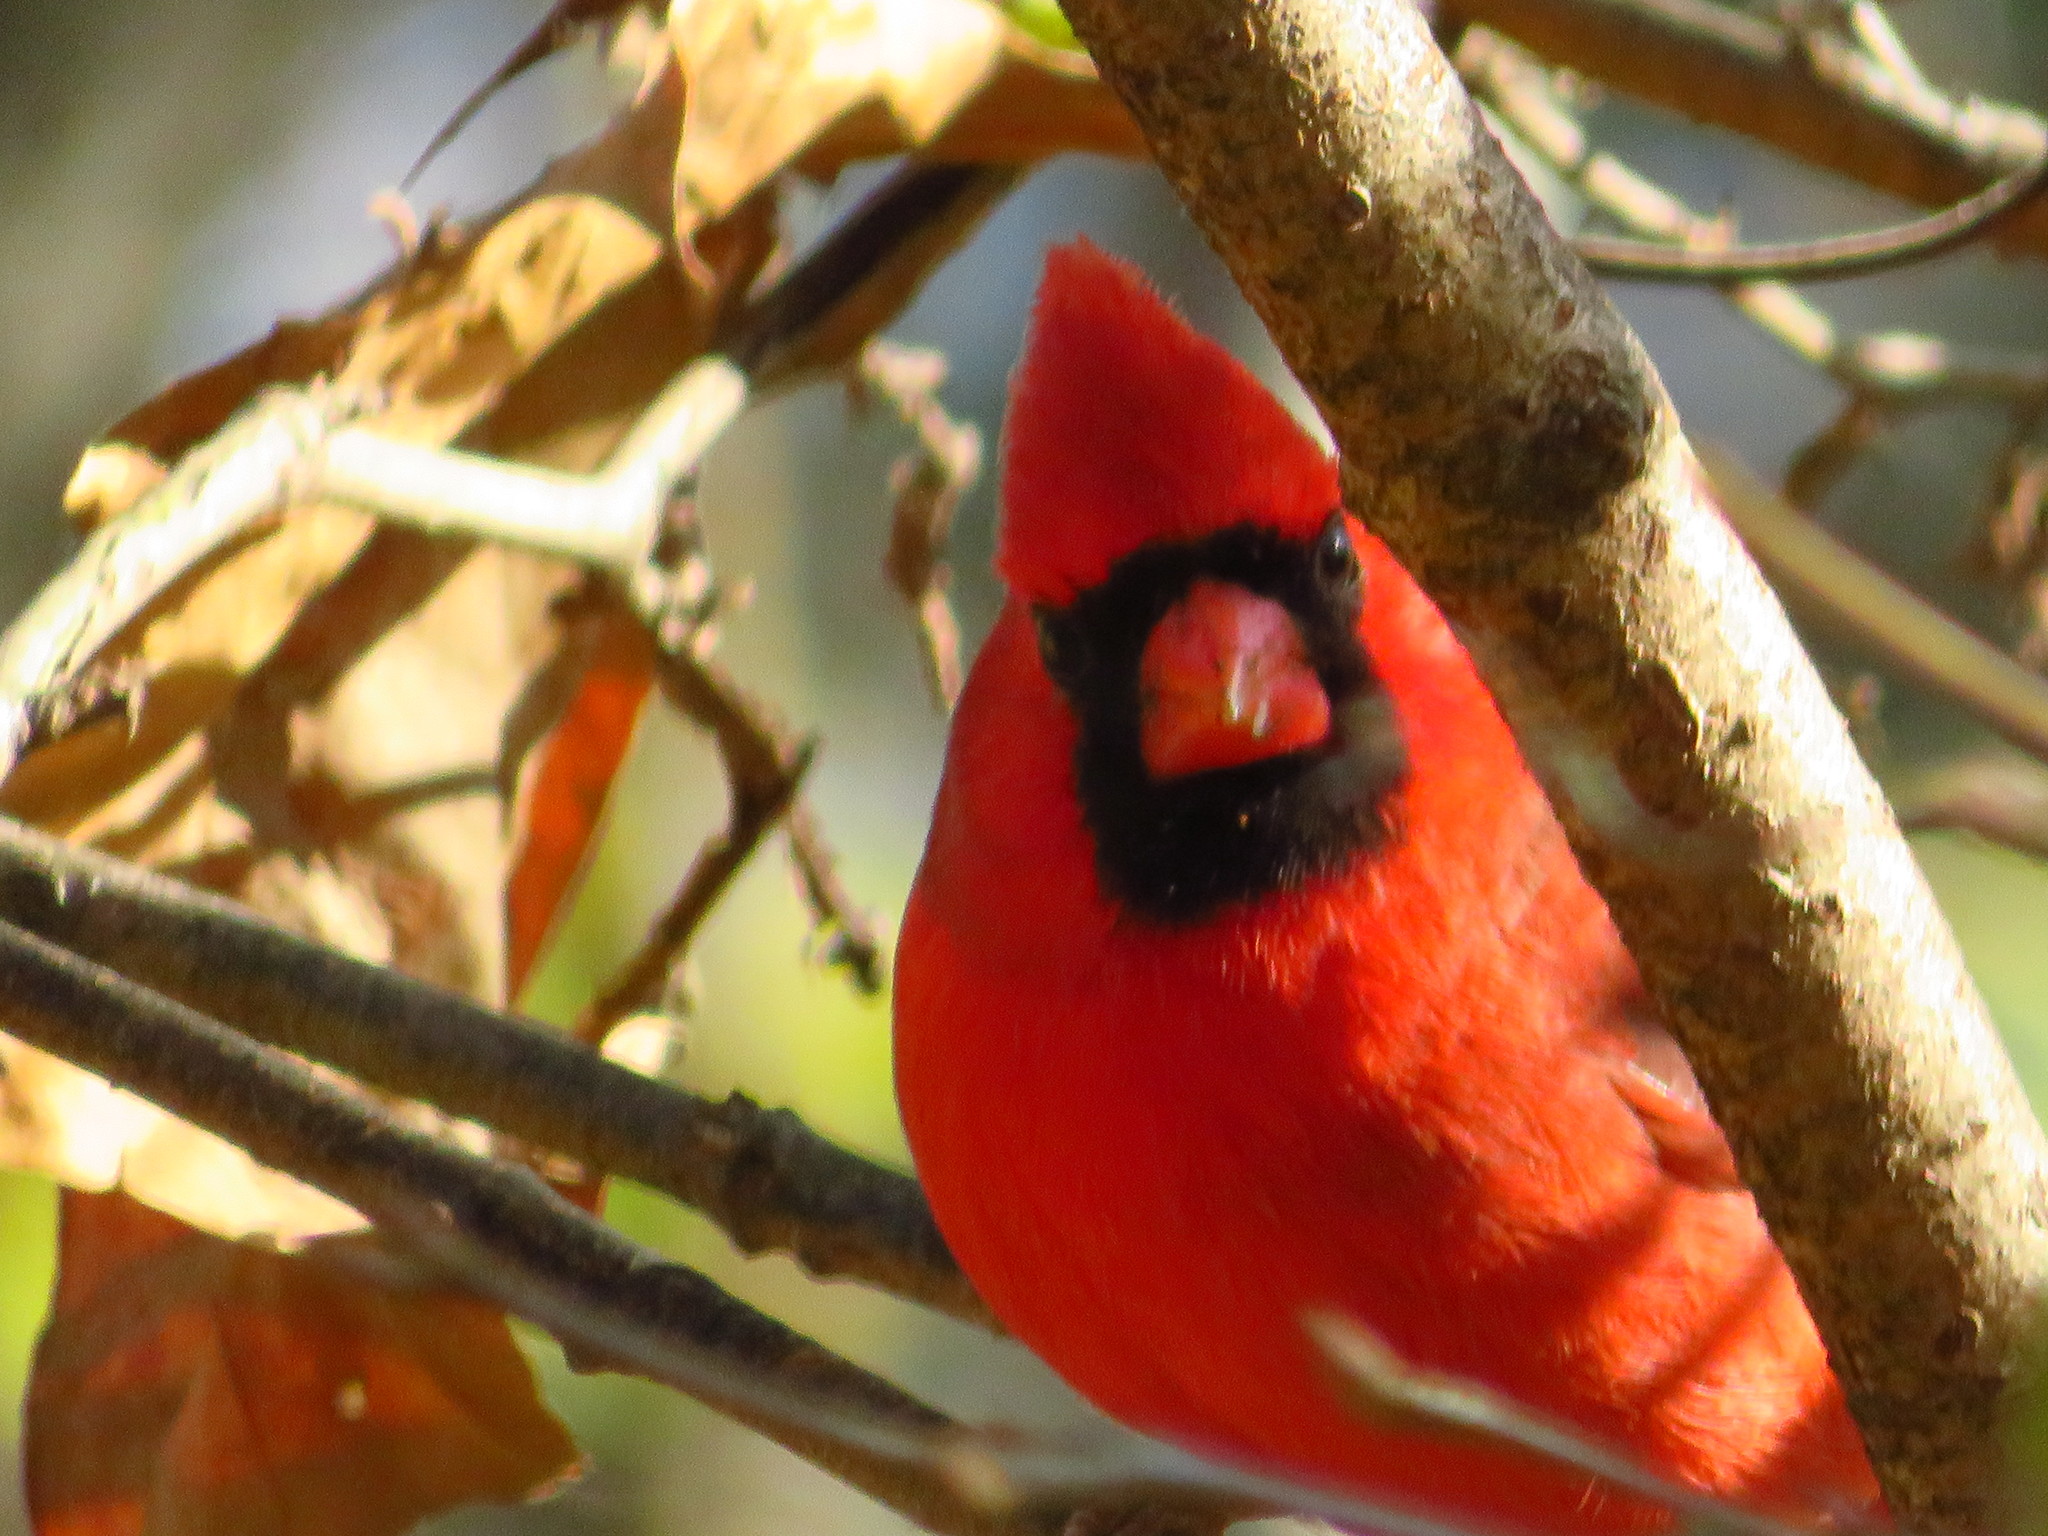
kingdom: Animalia
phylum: Chordata
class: Aves
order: Passeriformes
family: Cardinalidae
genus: Cardinalis
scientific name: Cardinalis cardinalis
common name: Northern cardinal
